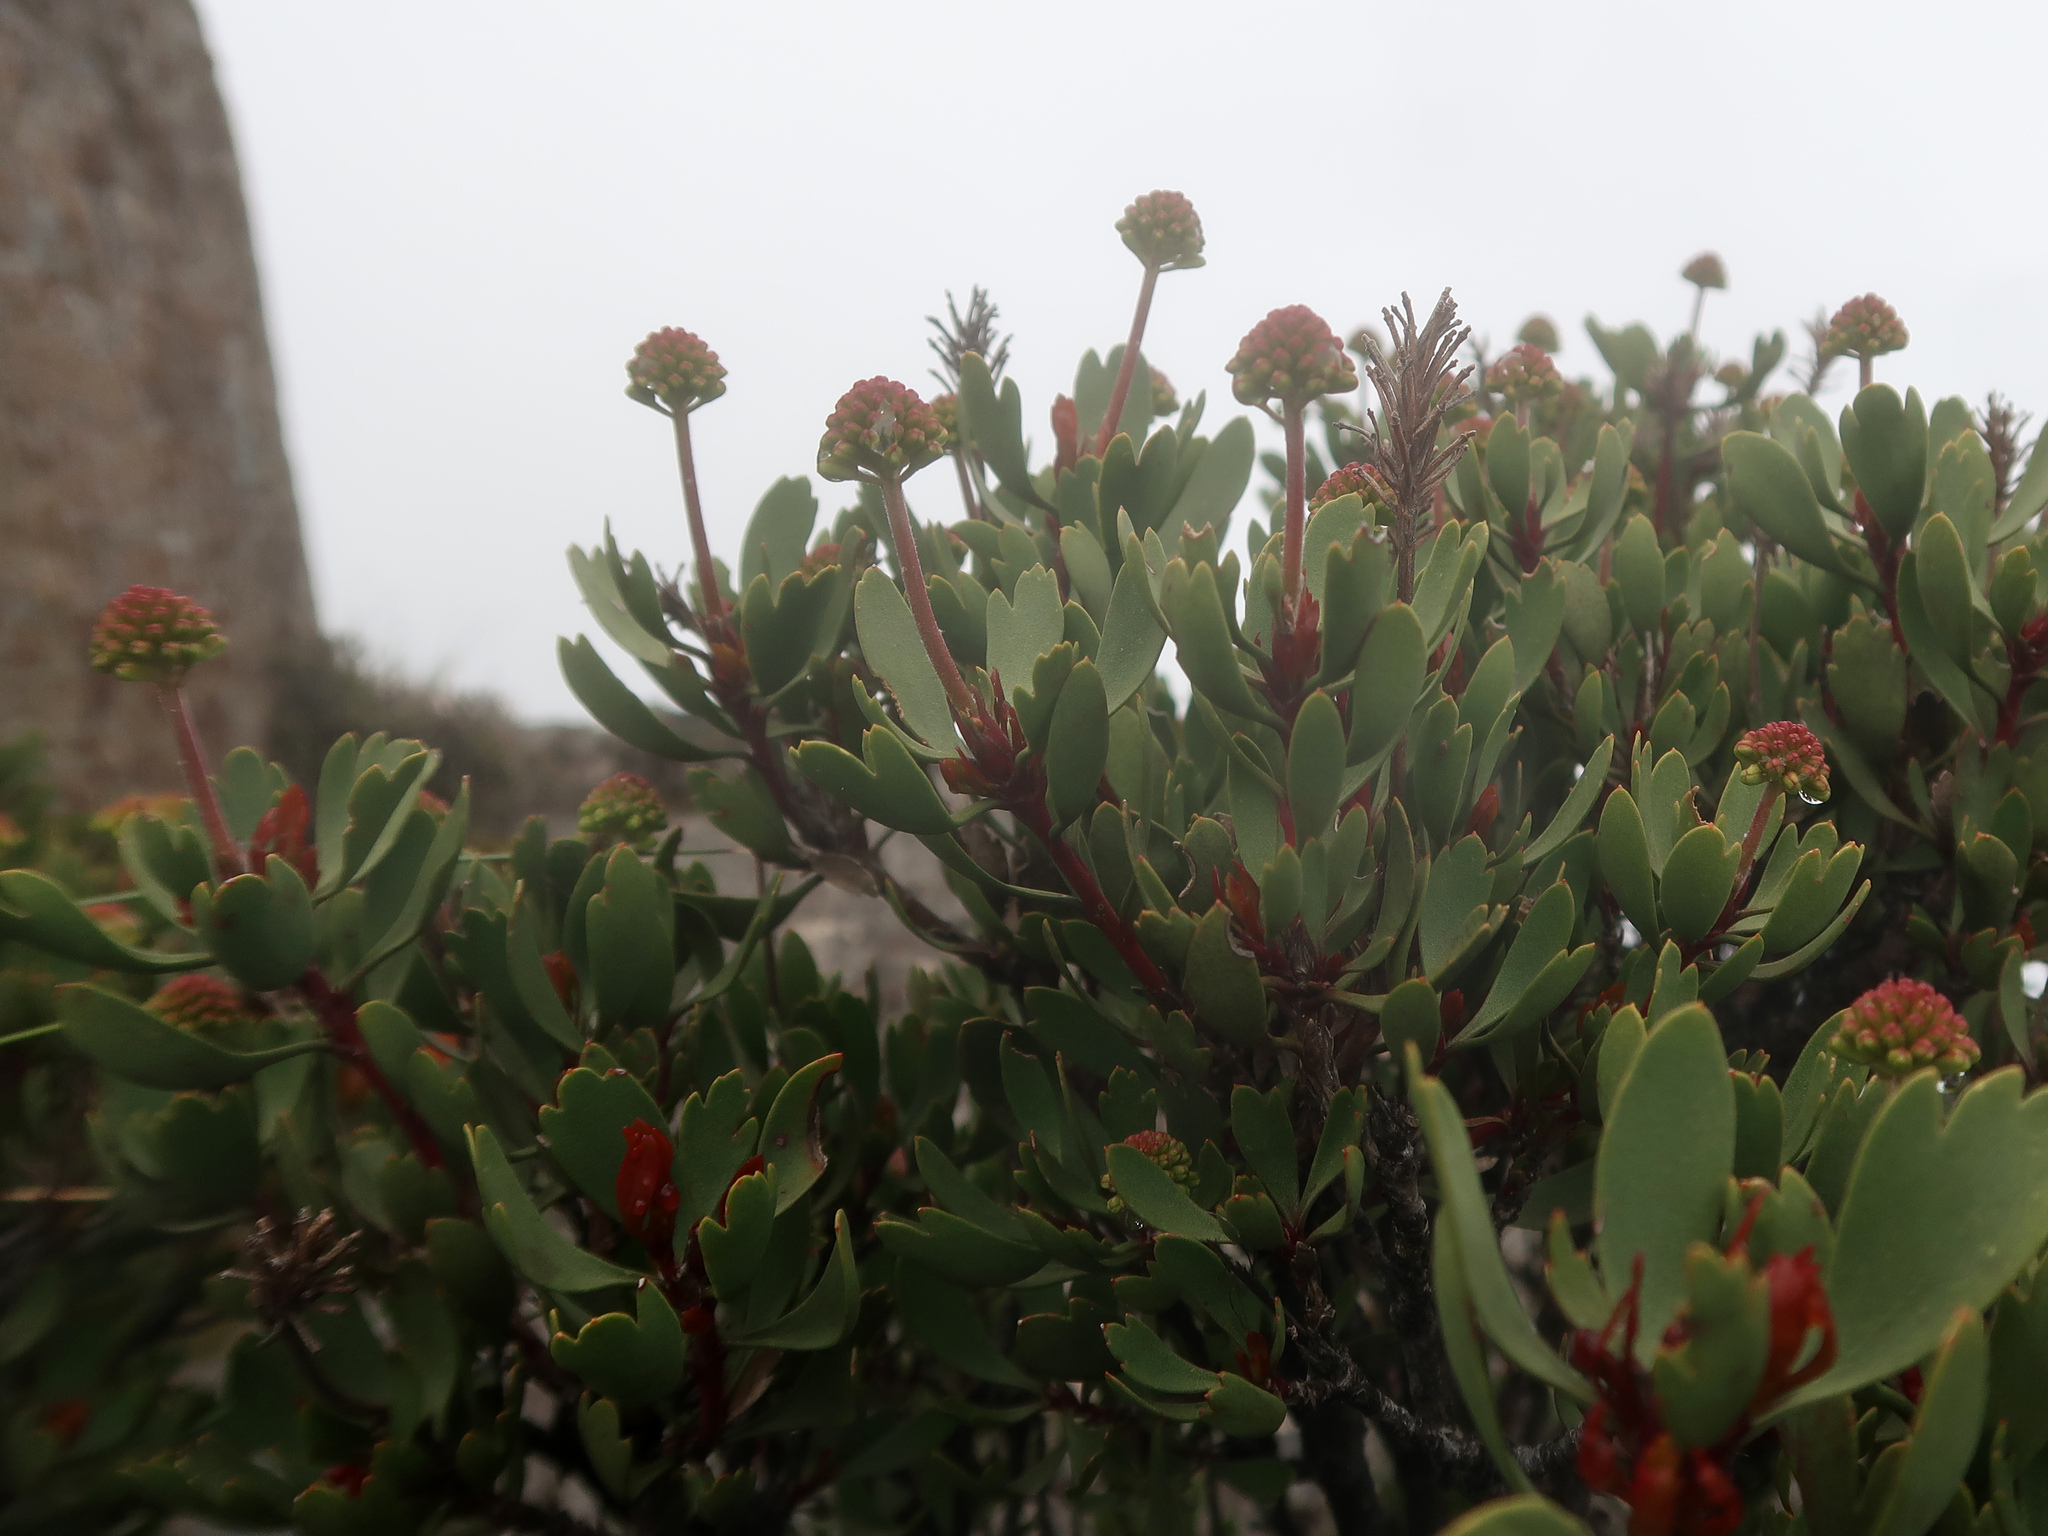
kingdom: Plantae
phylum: Tracheophyta
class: Magnoliopsida
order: Proteales
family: Proteaceae
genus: Bellendena
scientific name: Bellendena montana
